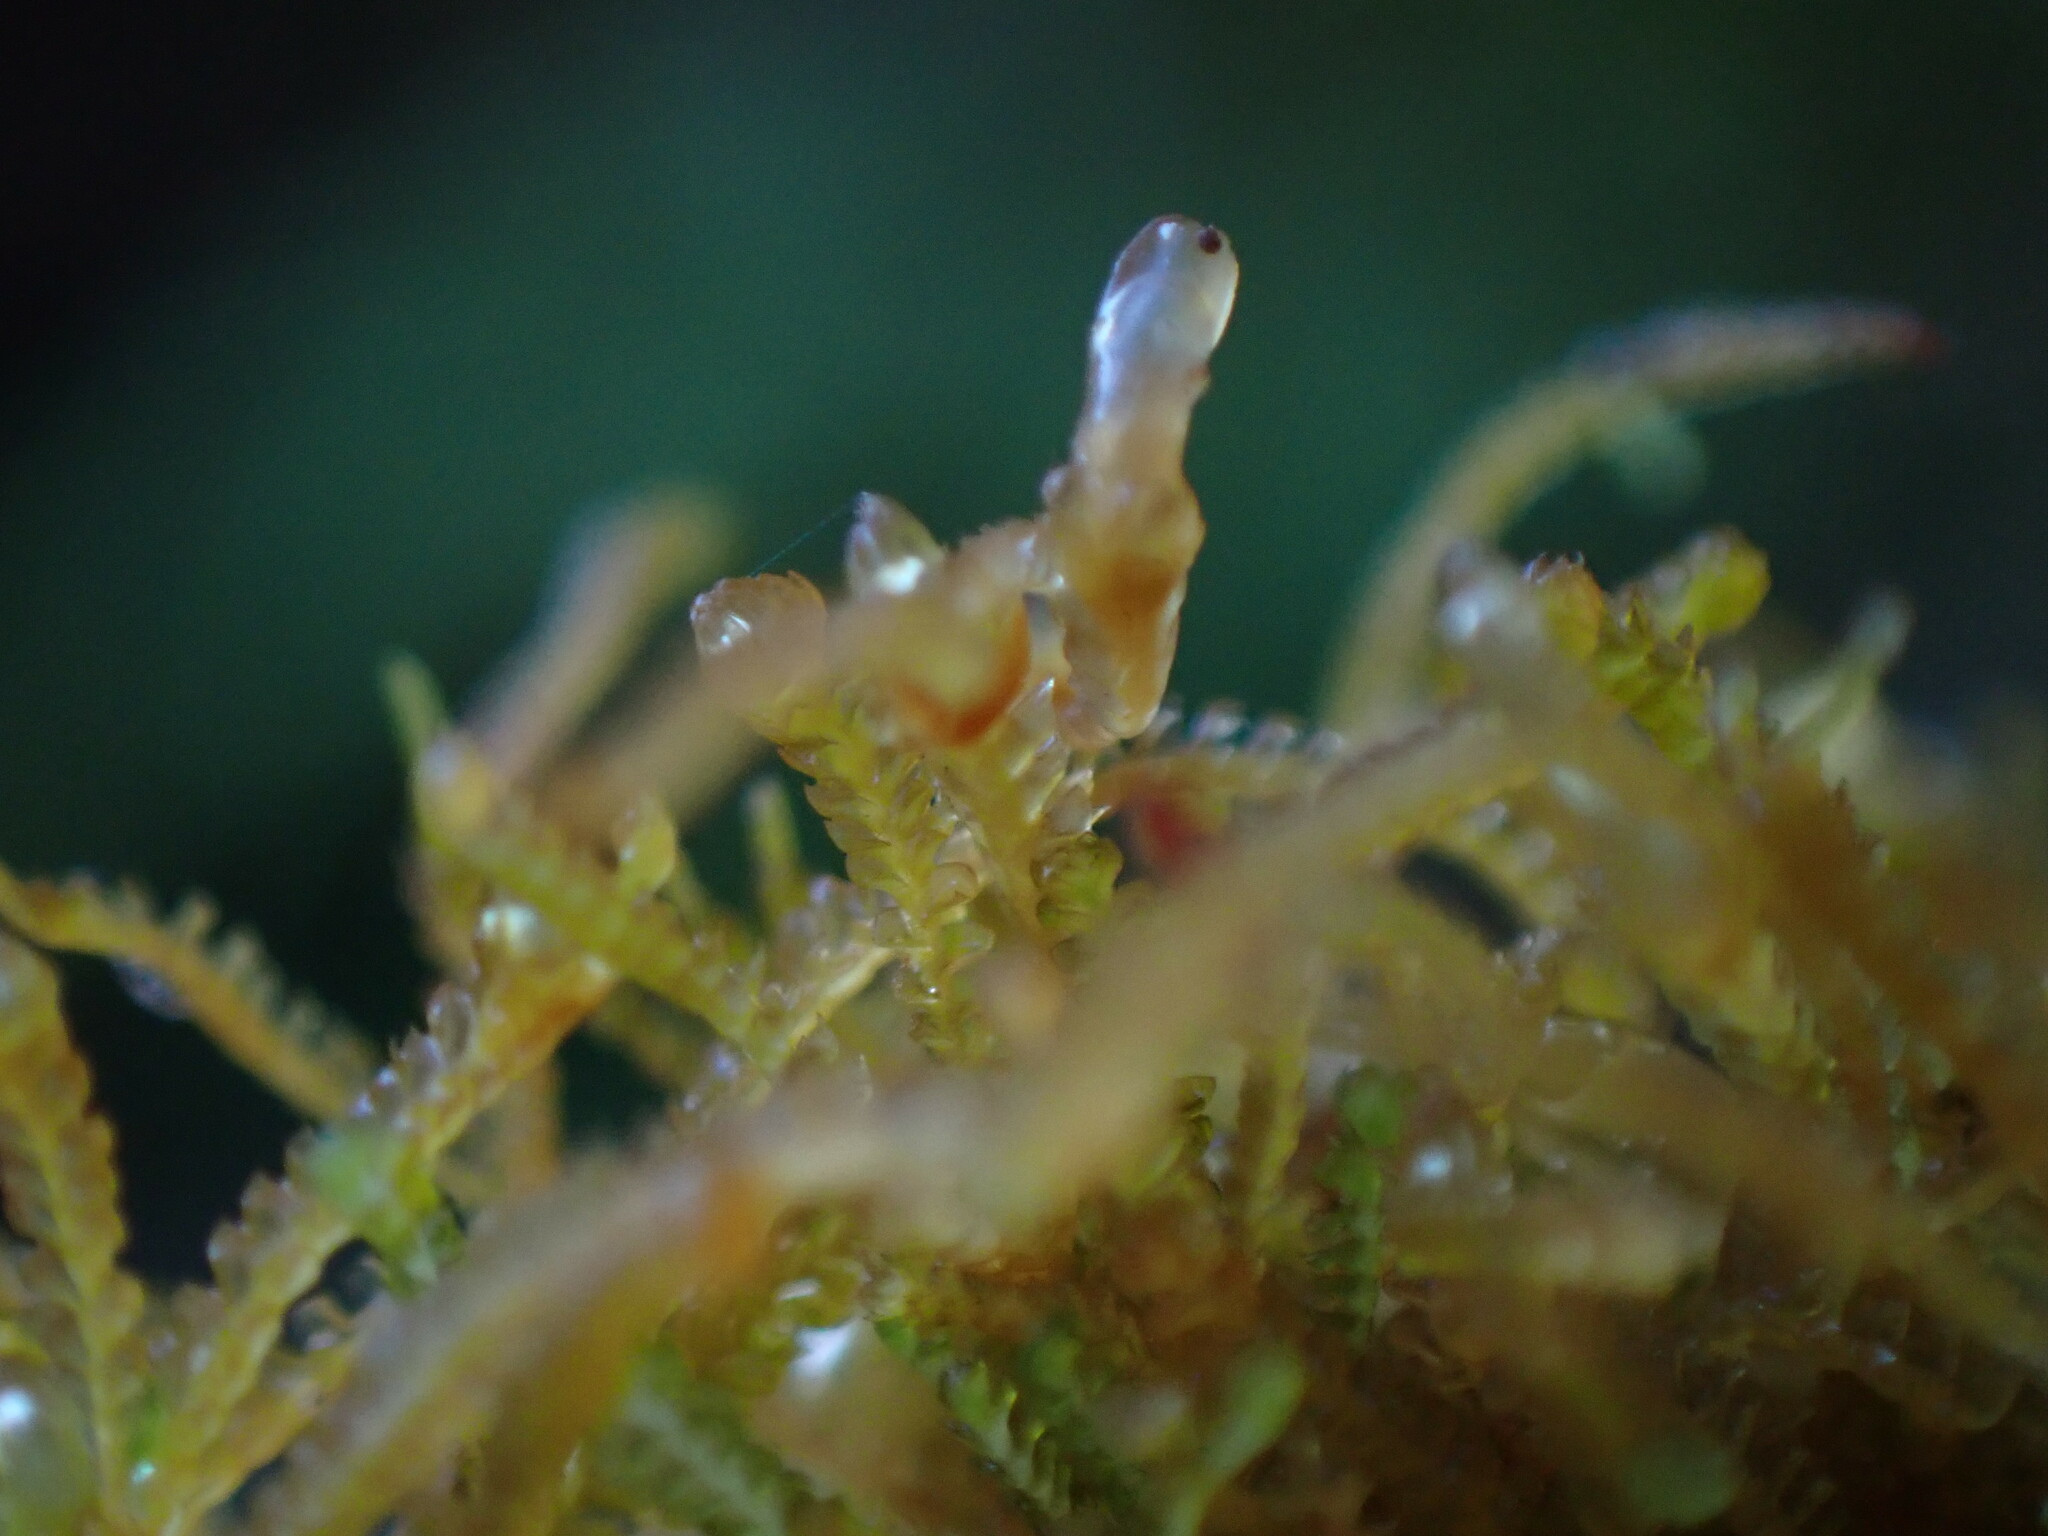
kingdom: Plantae
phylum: Marchantiophyta
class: Jungermanniopsida
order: Jungermanniales
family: Anastrophyllaceae
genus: Sphenolobus
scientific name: Sphenolobus minutus
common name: Comb notchwort
